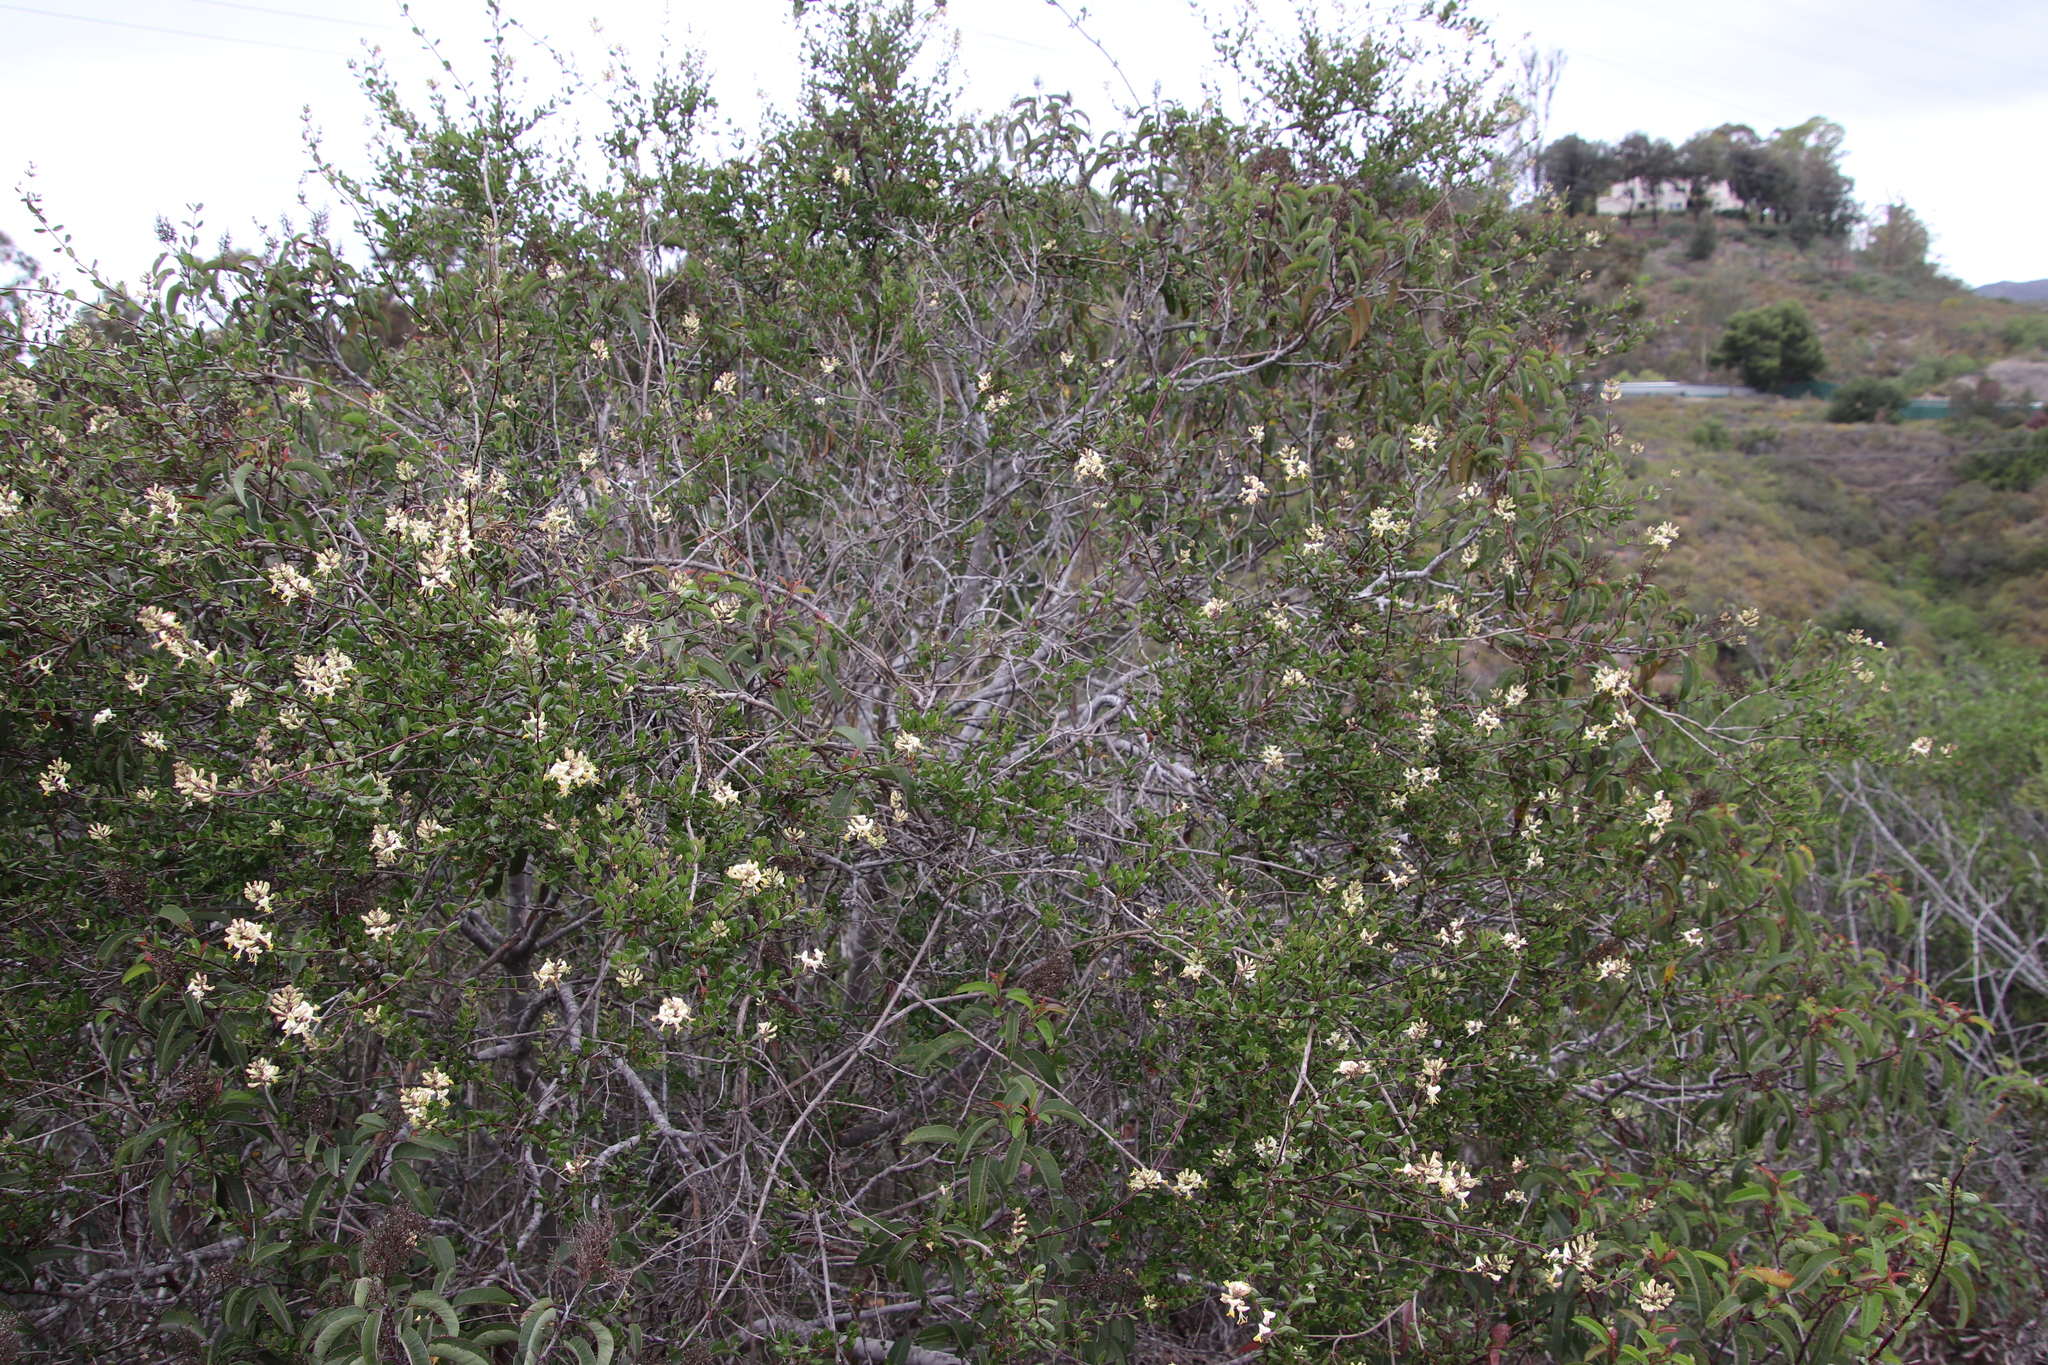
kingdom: Plantae
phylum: Tracheophyta
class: Magnoliopsida
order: Dipsacales
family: Caprifoliaceae
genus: Lonicera
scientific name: Lonicera subspicata
